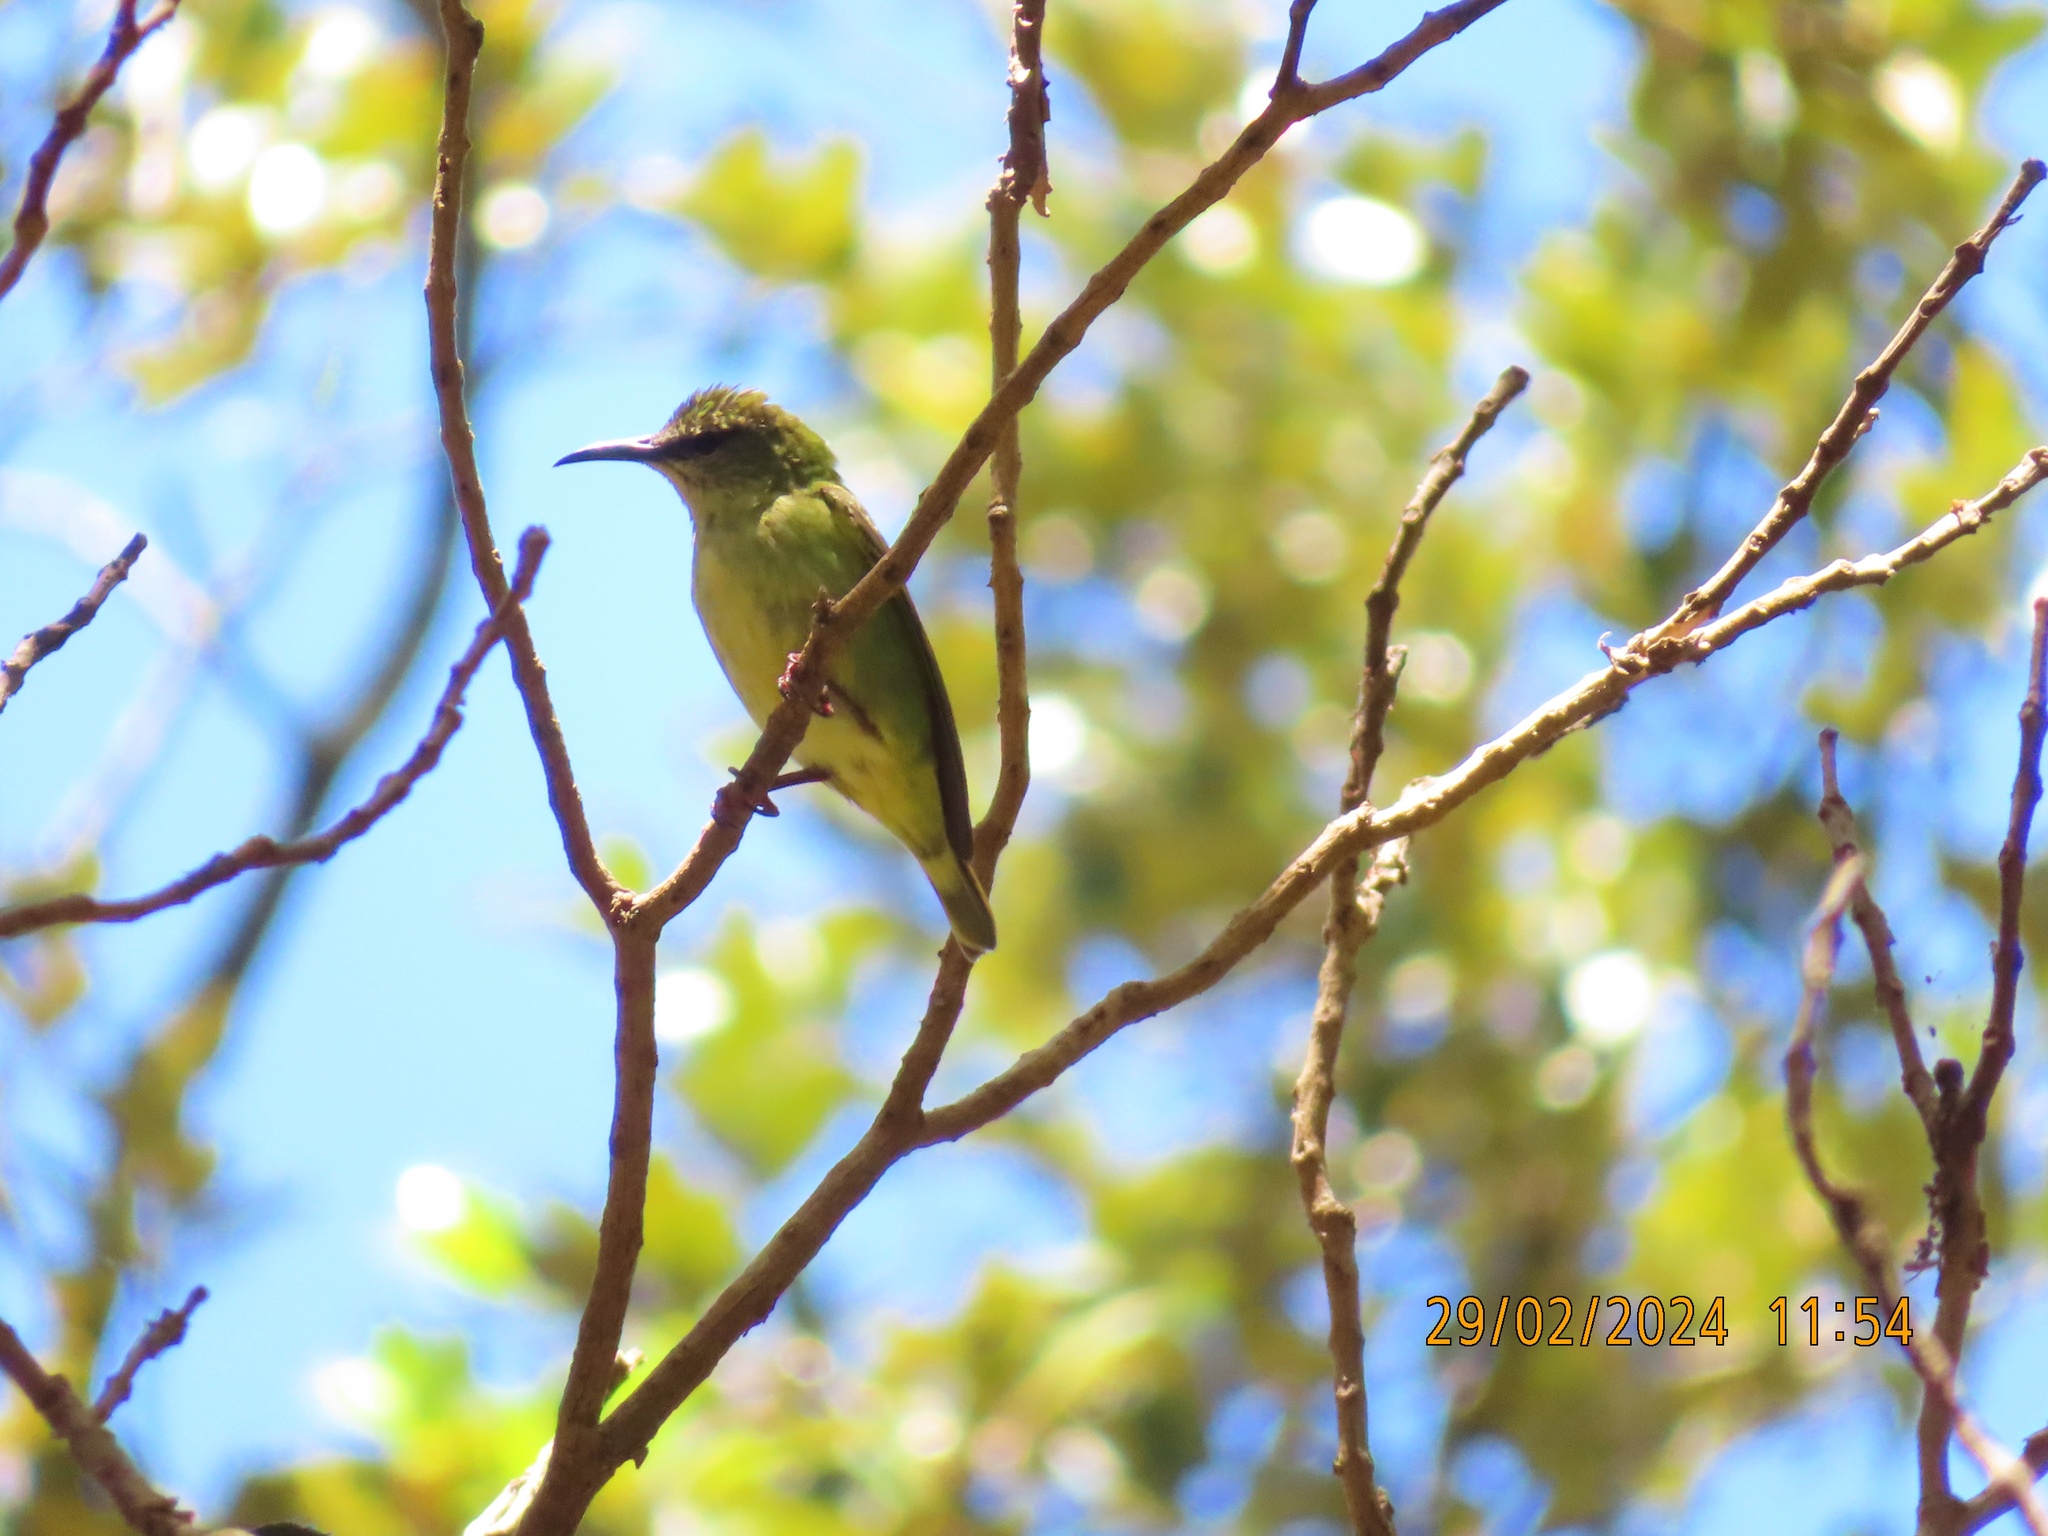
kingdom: Animalia
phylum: Chordata
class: Aves
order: Passeriformes
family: Thraupidae
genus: Cyanerpes
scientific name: Cyanerpes cyaneus
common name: Red-legged honeycreeper
